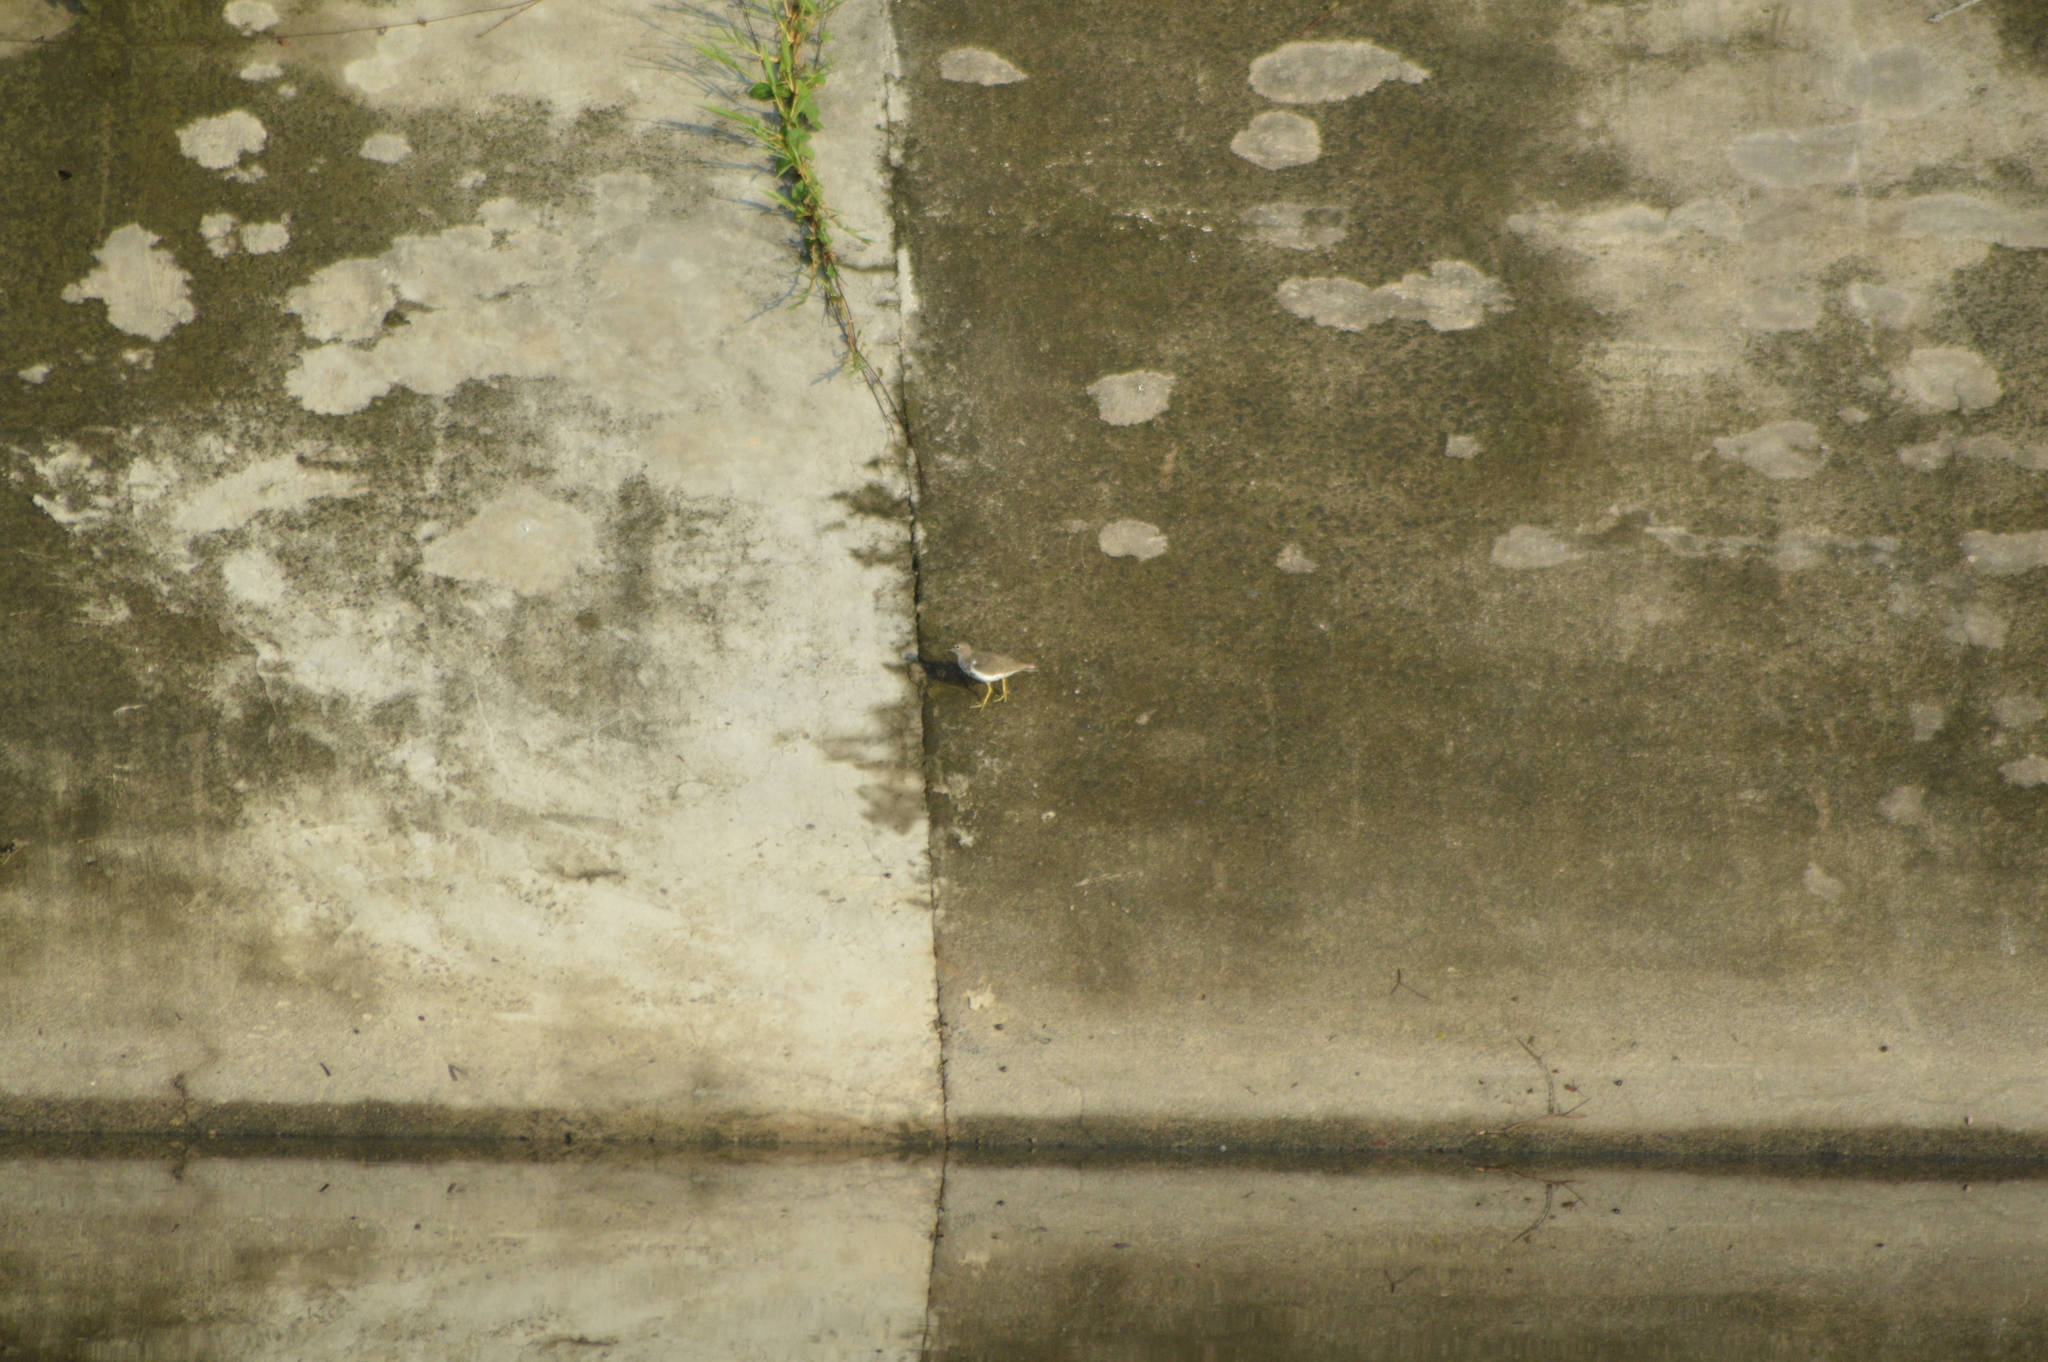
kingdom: Animalia
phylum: Chordata
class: Aves
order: Charadriiformes
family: Scolopacidae
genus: Actitis
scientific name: Actitis macularius
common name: Spotted sandpiper
